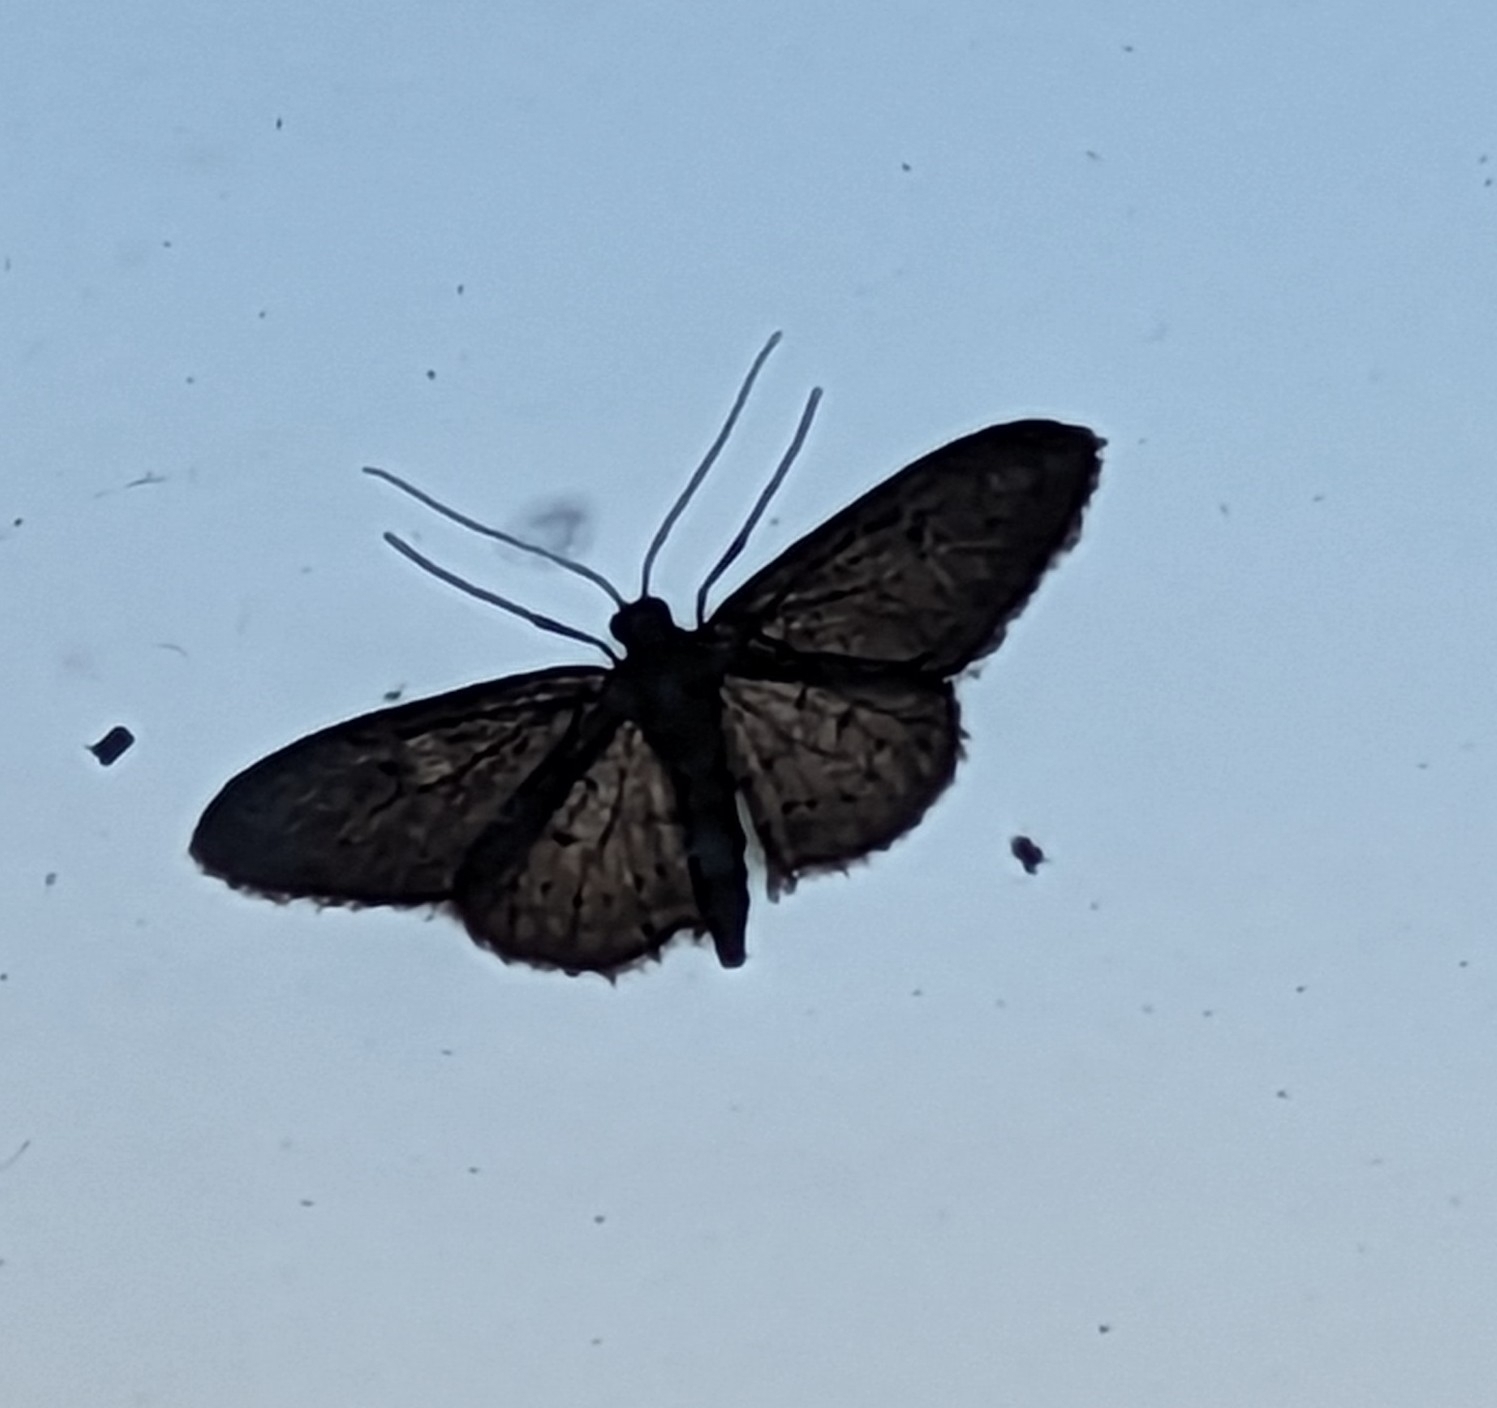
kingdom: Animalia
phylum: Arthropoda
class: Insecta
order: Lepidoptera
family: Geometridae
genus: Idaea
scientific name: Idaea seriata
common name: Small dusty wave
